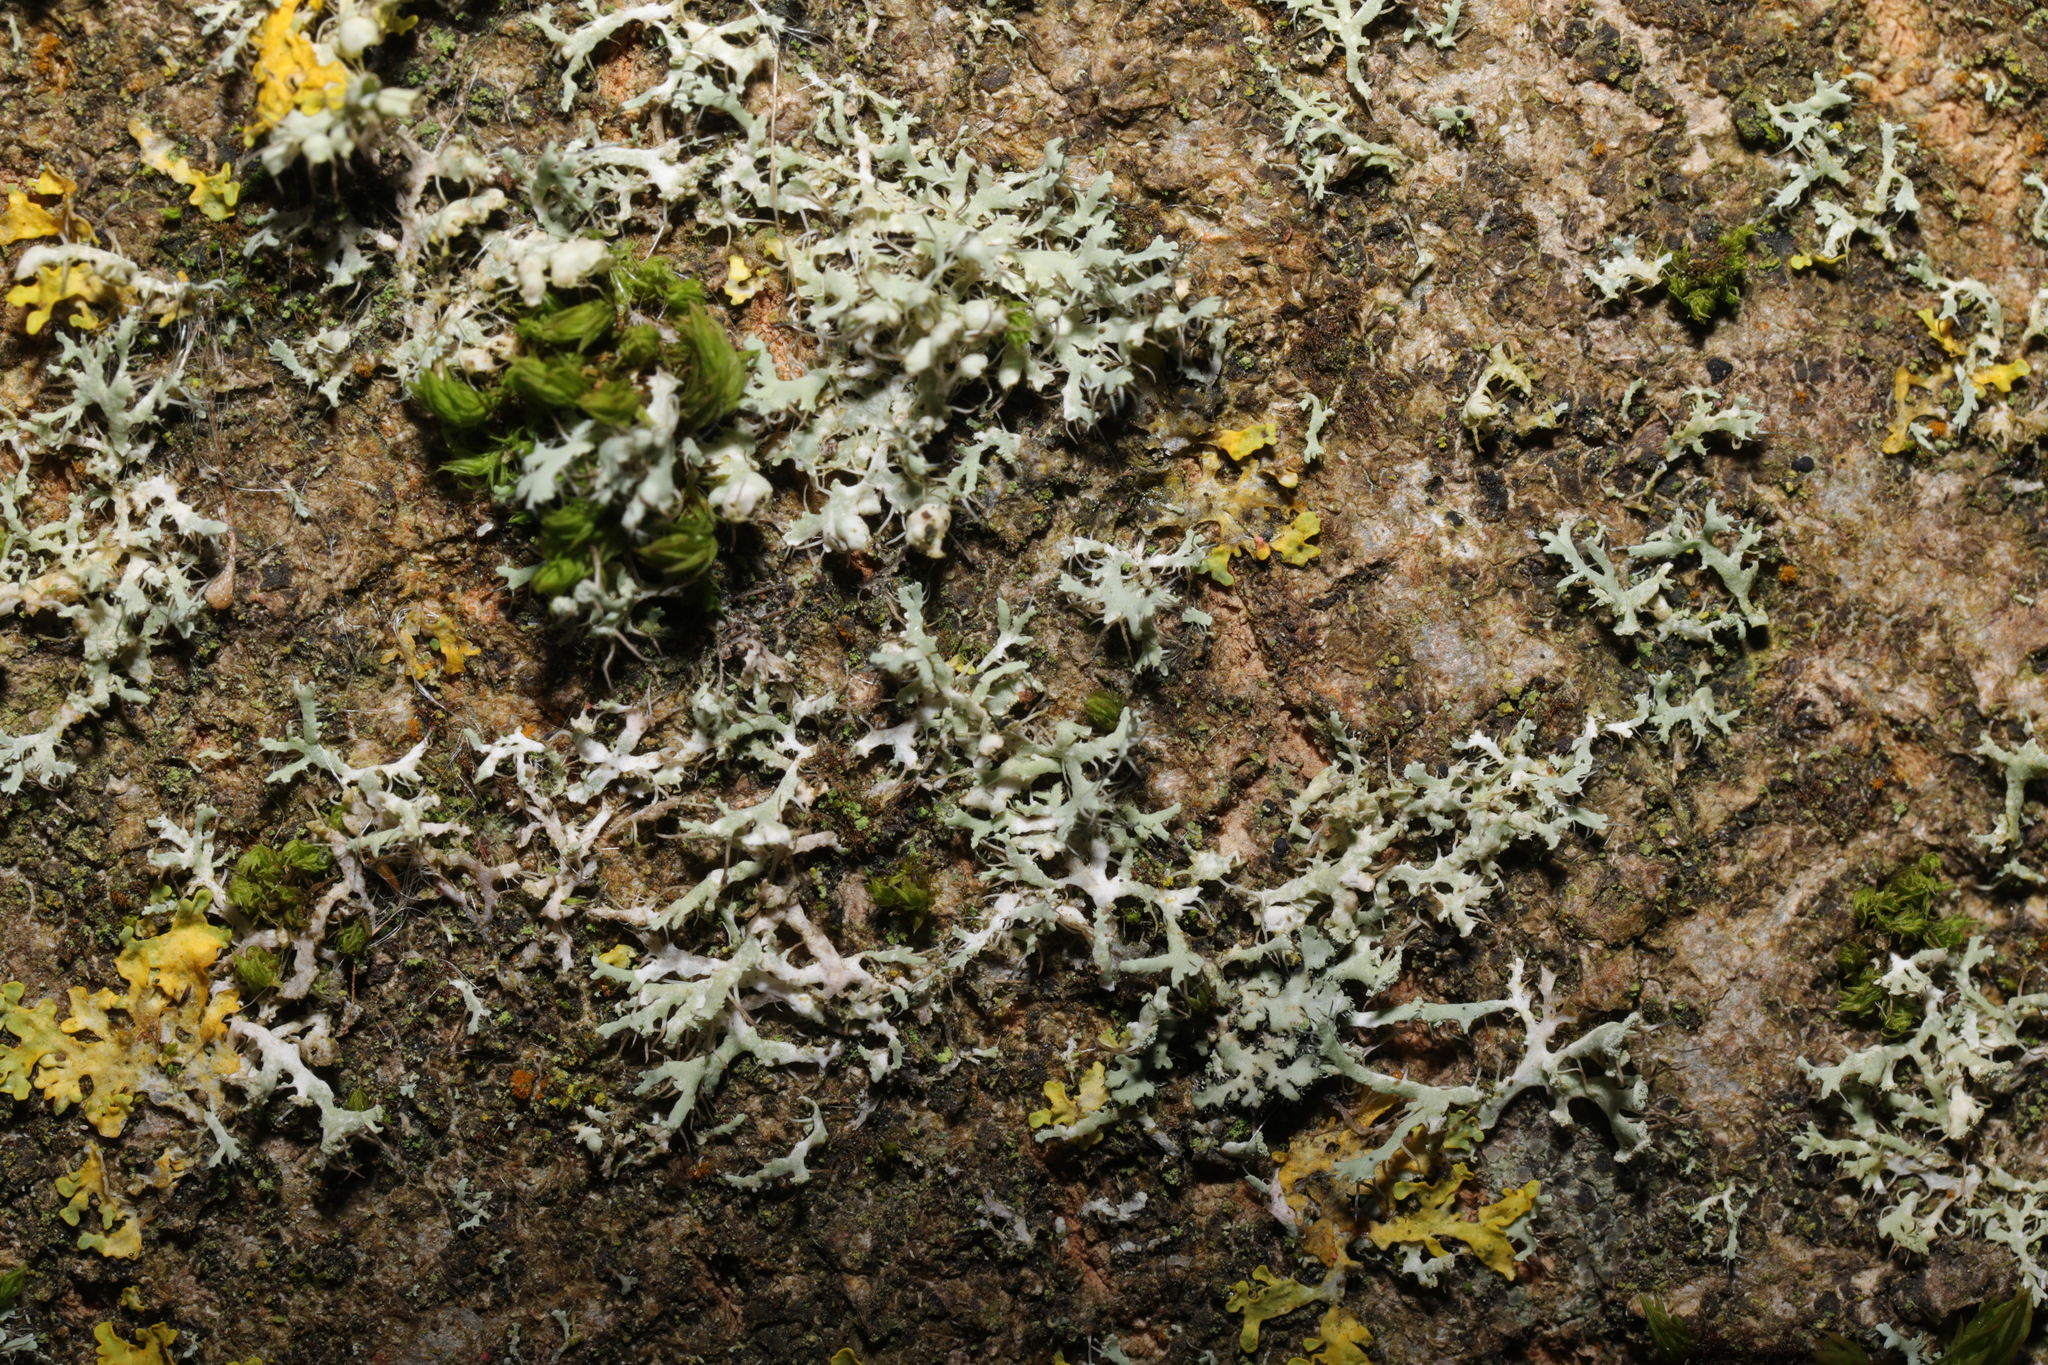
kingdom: Fungi
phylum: Ascomycota
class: Lecanoromycetes
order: Caliciales
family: Physciaceae
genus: Physcia
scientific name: Physcia adscendens
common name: Hooded rosette lichen
